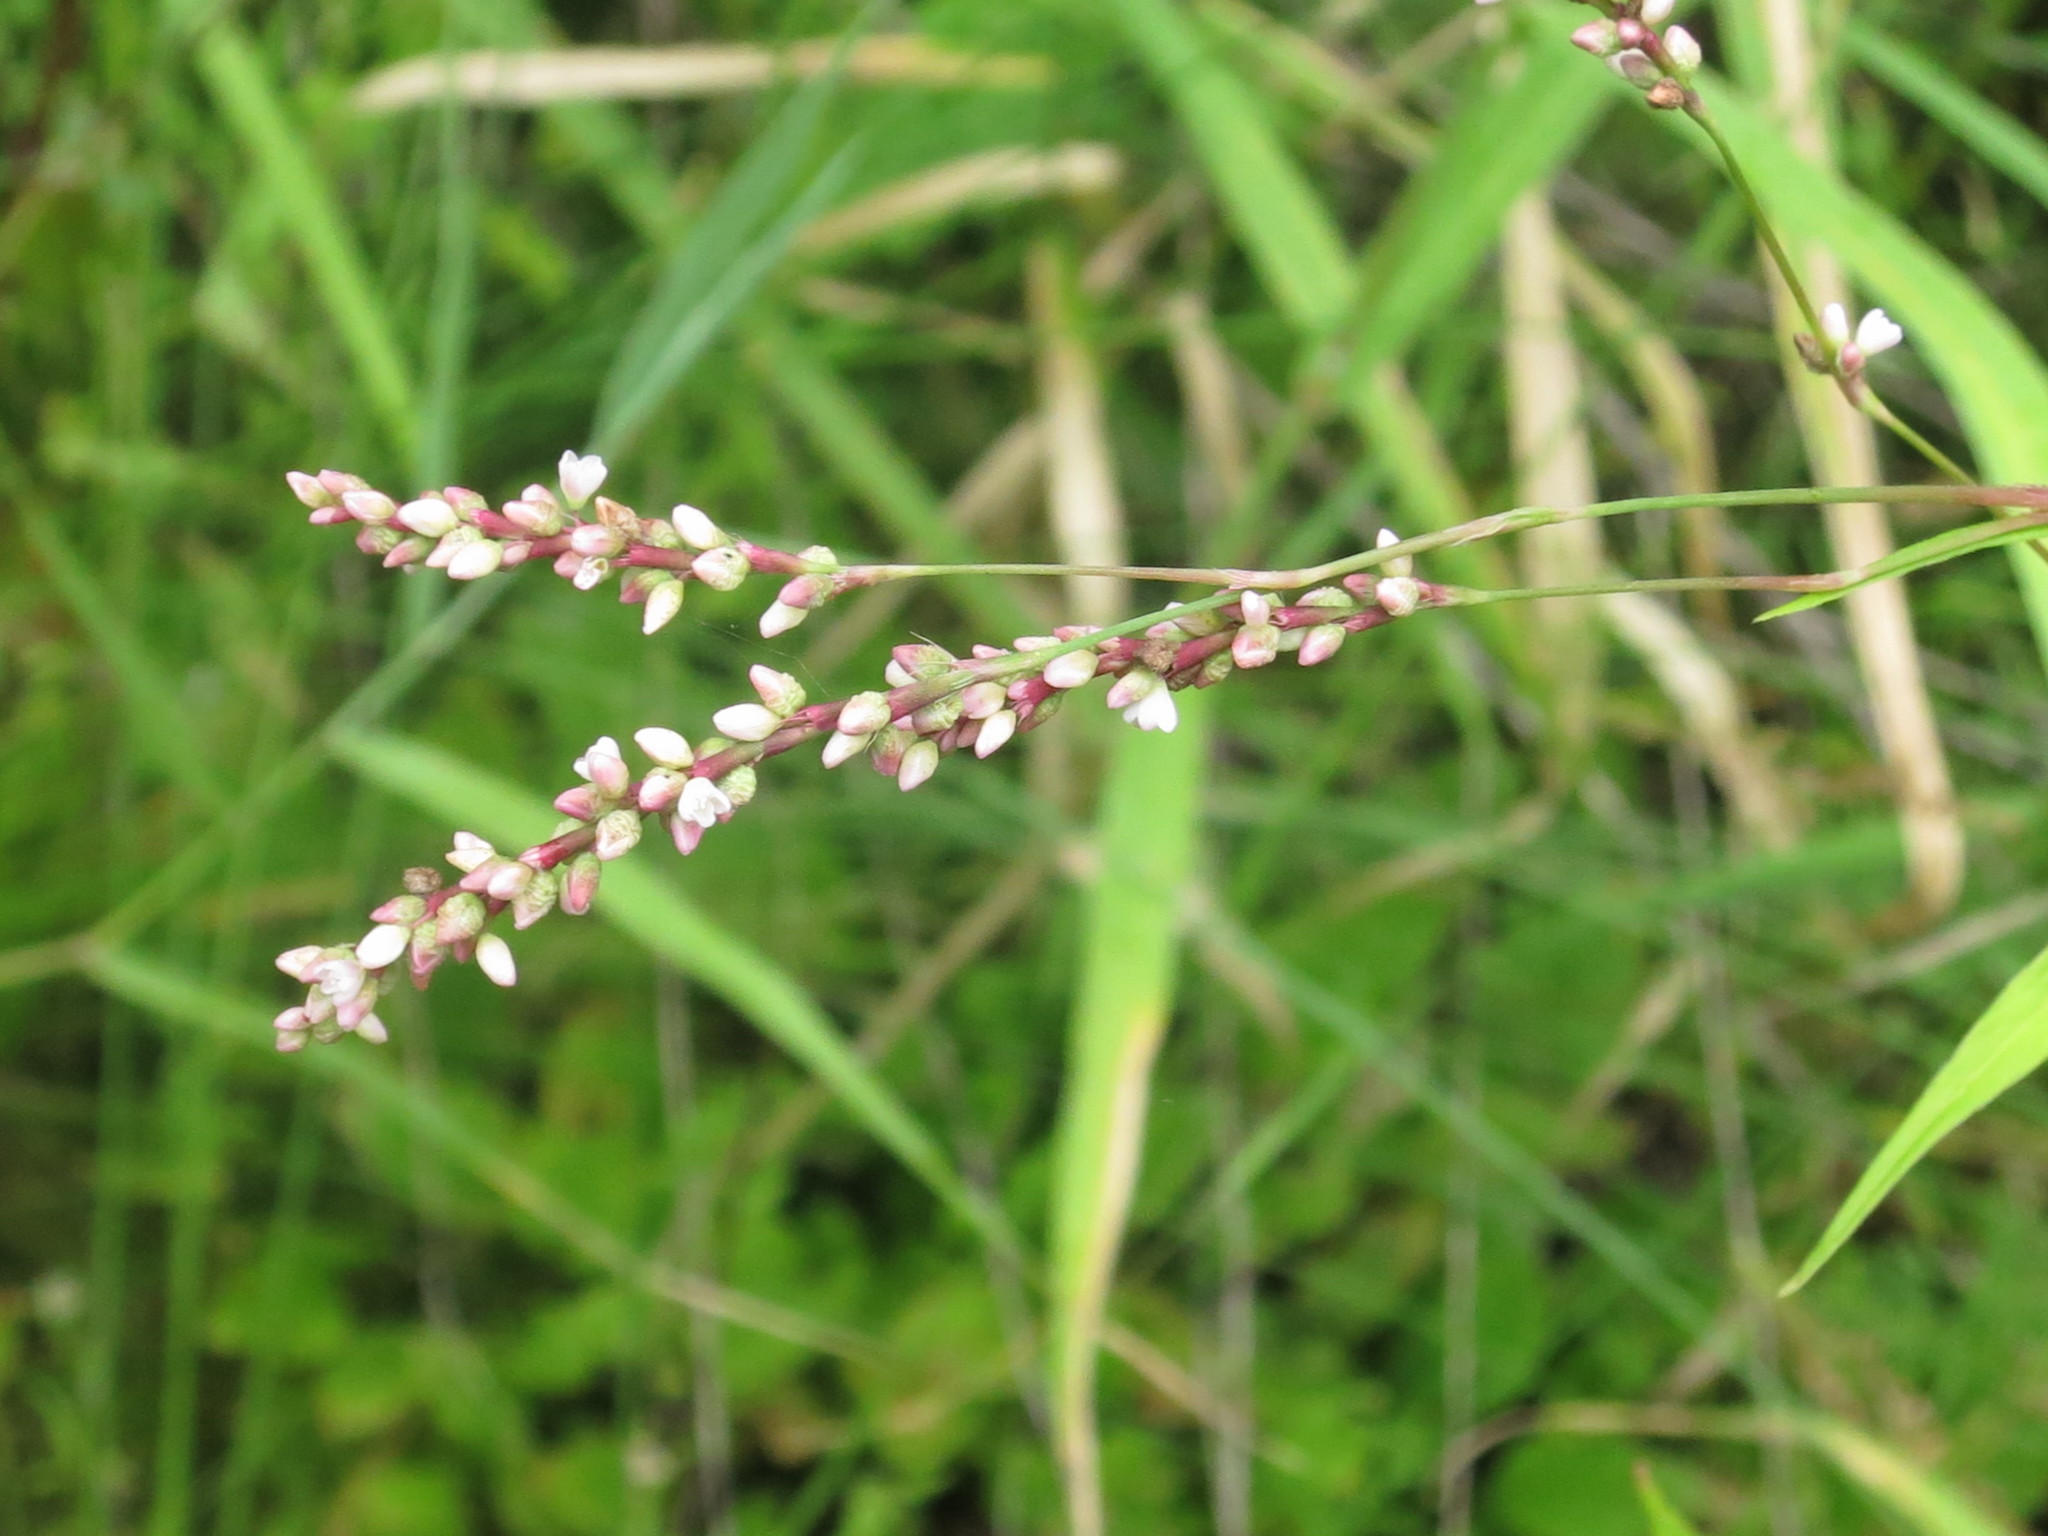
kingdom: Plantae
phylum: Tracheophyta
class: Magnoliopsida
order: Caryophyllales
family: Polygonaceae
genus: Persicaria
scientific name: Persicaria lapathifolia
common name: Curlytop knotweed
